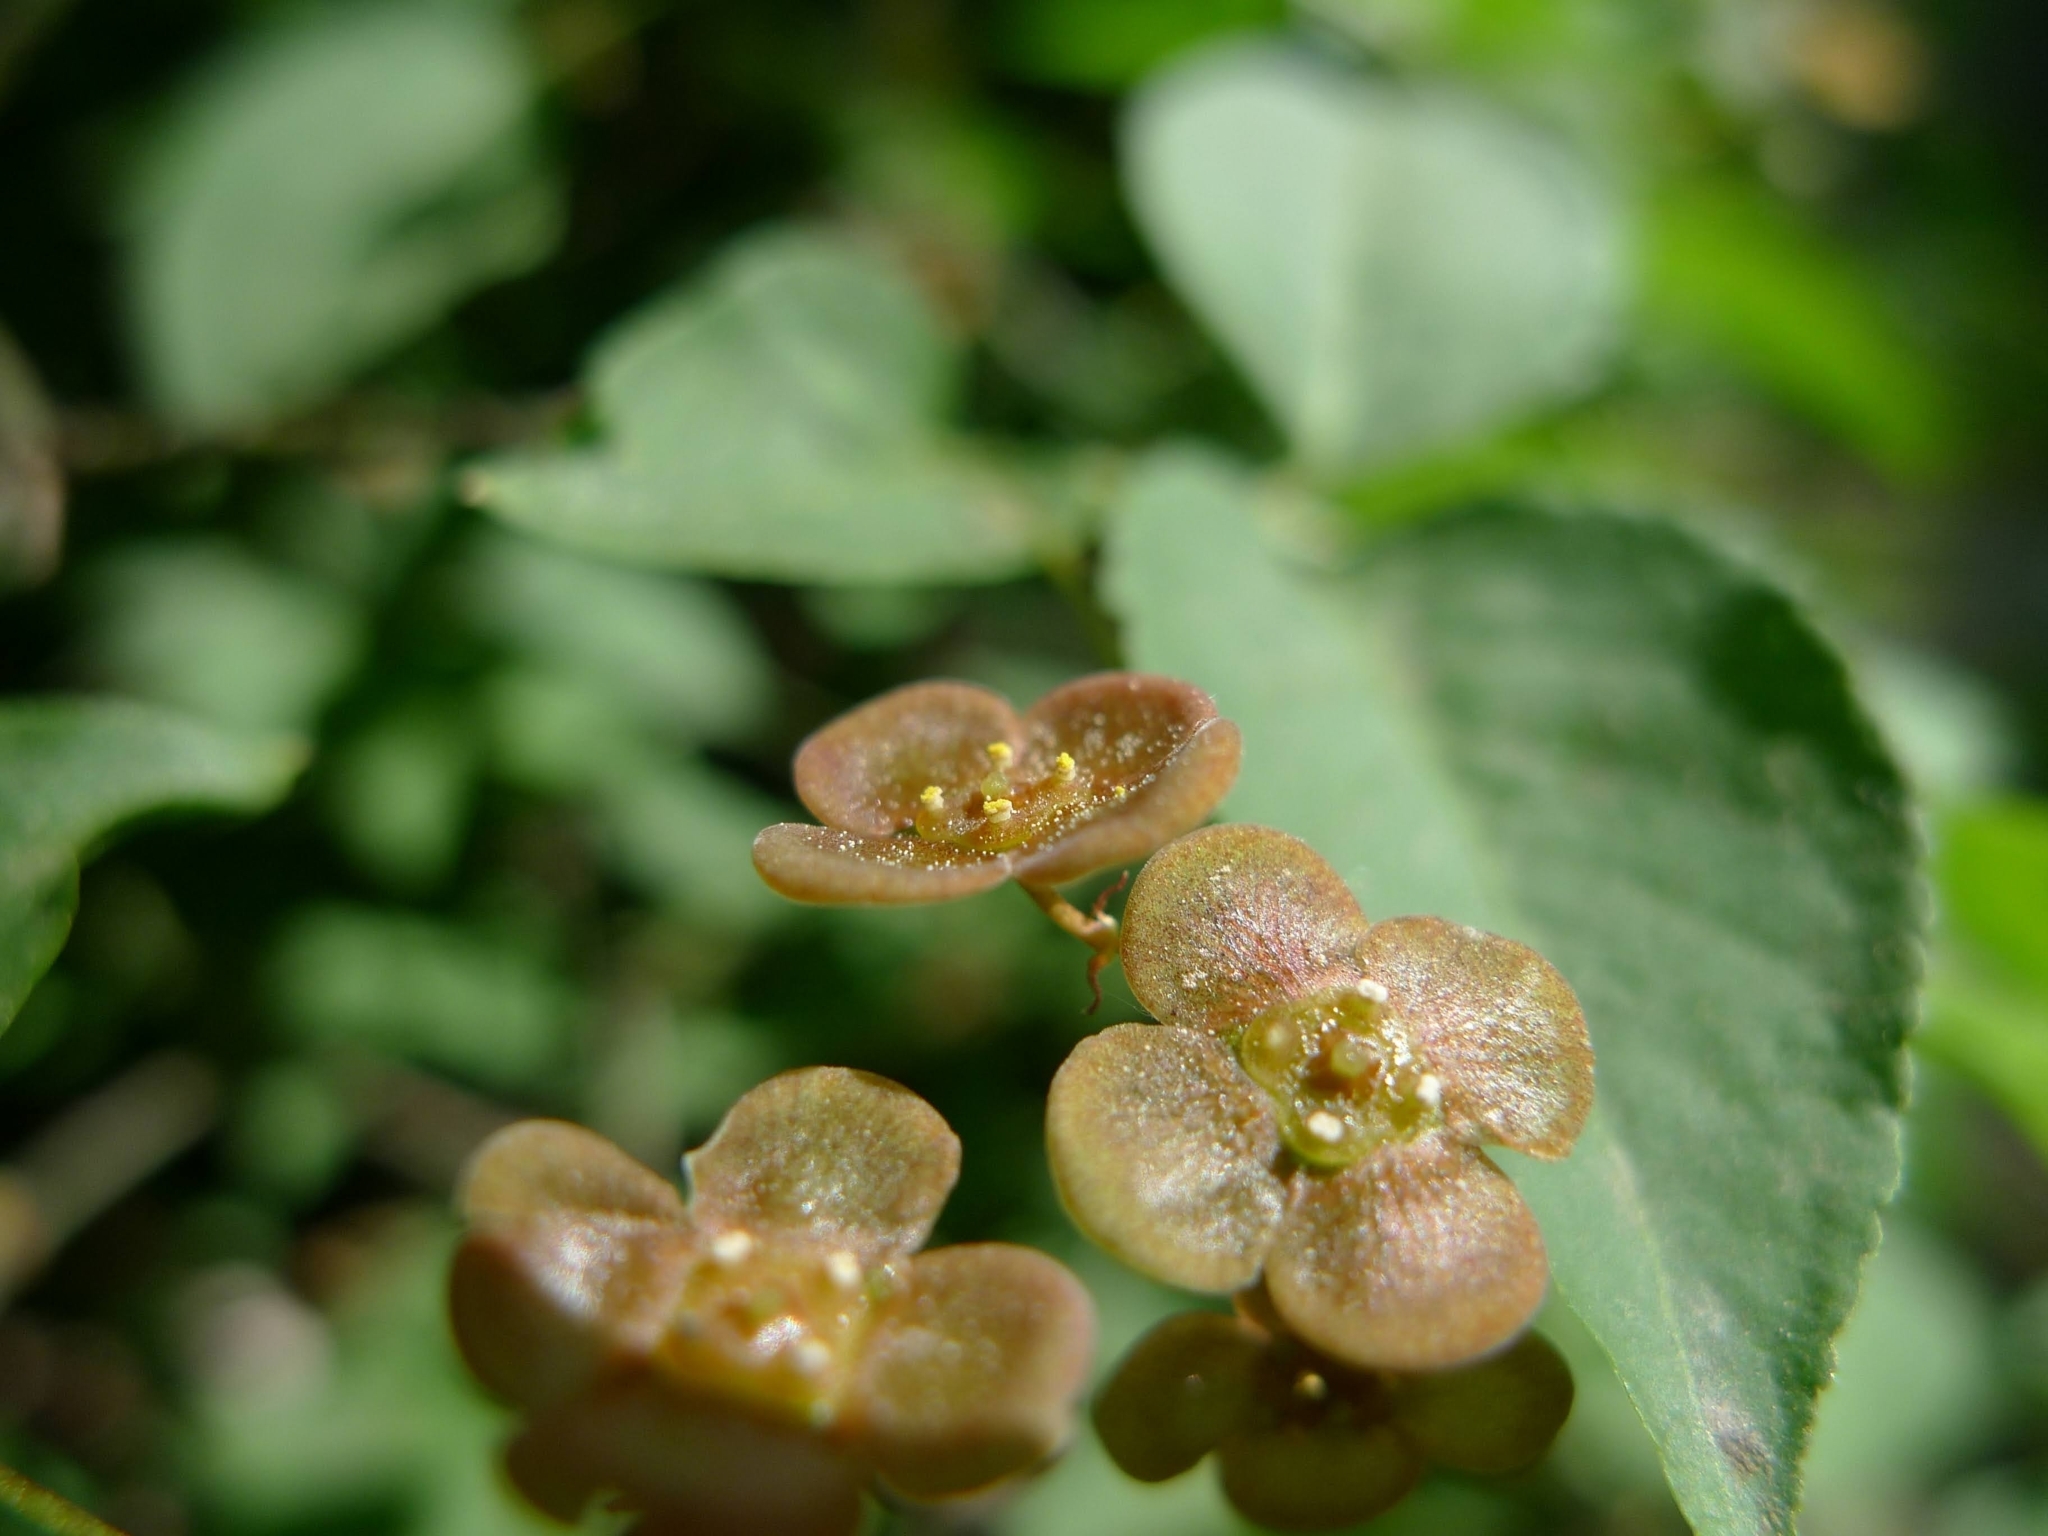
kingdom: Plantae
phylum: Tracheophyta
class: Magnoliopsida
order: Celastrales
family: Celastraceae
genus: Euonymus
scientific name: Euonymus verrucosus
